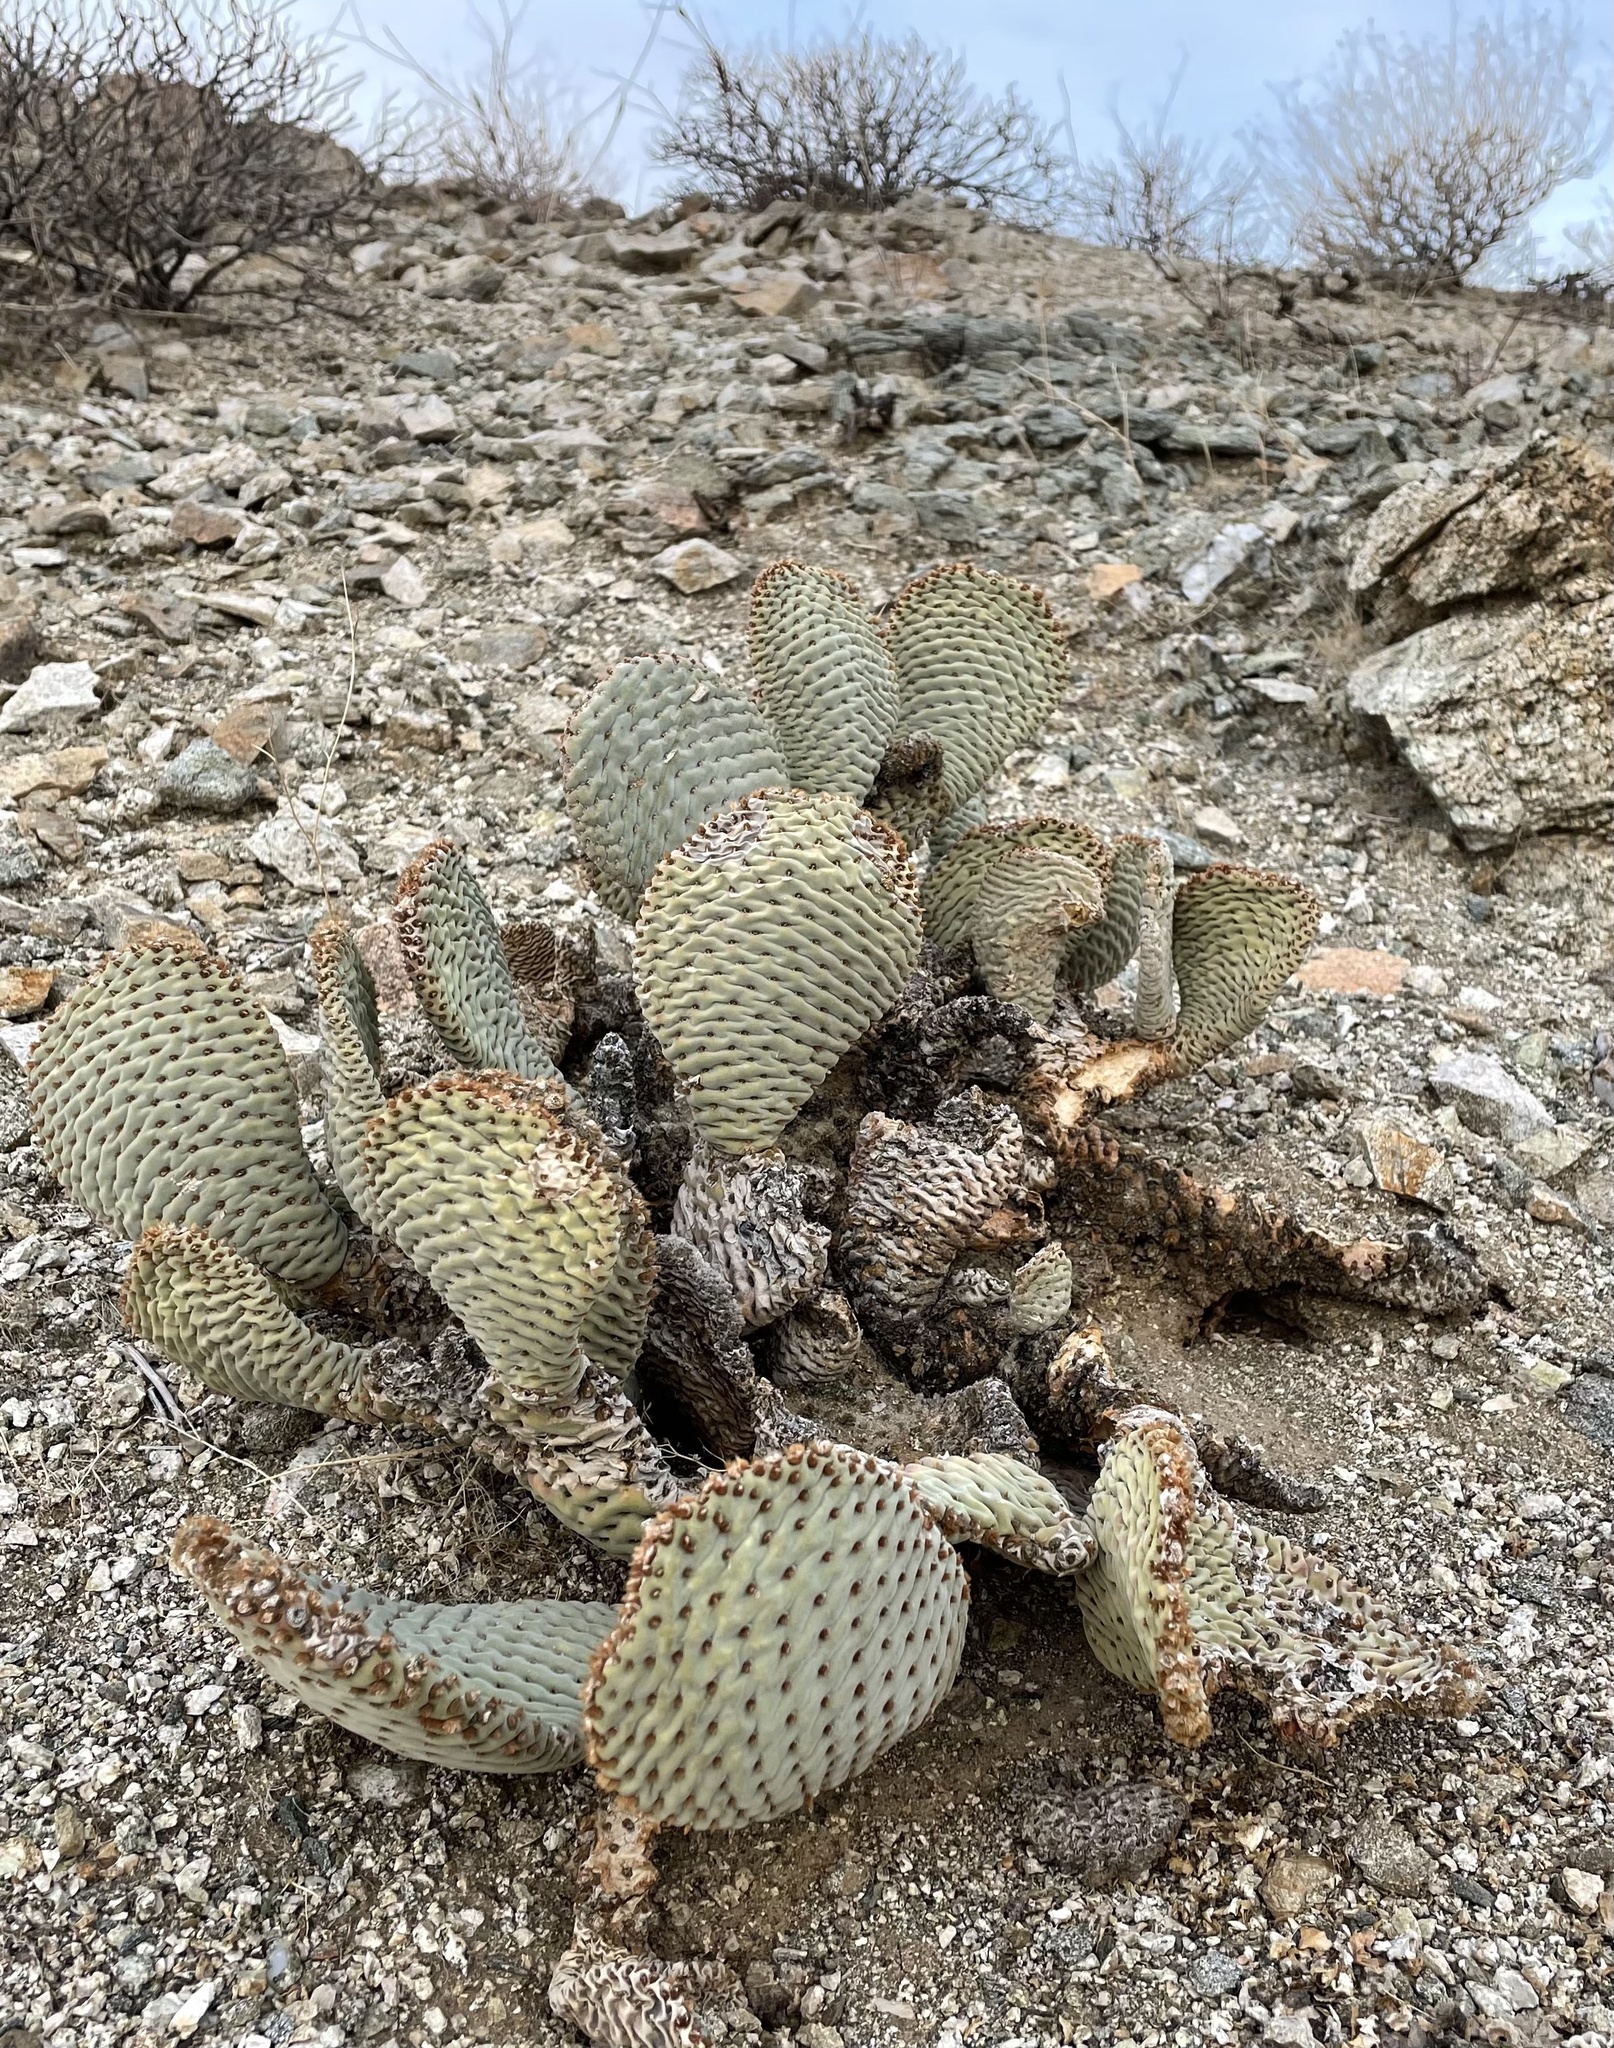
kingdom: Plantae
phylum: Tracheophyta
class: Magnoliopsida
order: Caryophyllales
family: Cactaceae
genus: Opuntia
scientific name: Opuntia basilaris
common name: Beavertail prickly-pear
